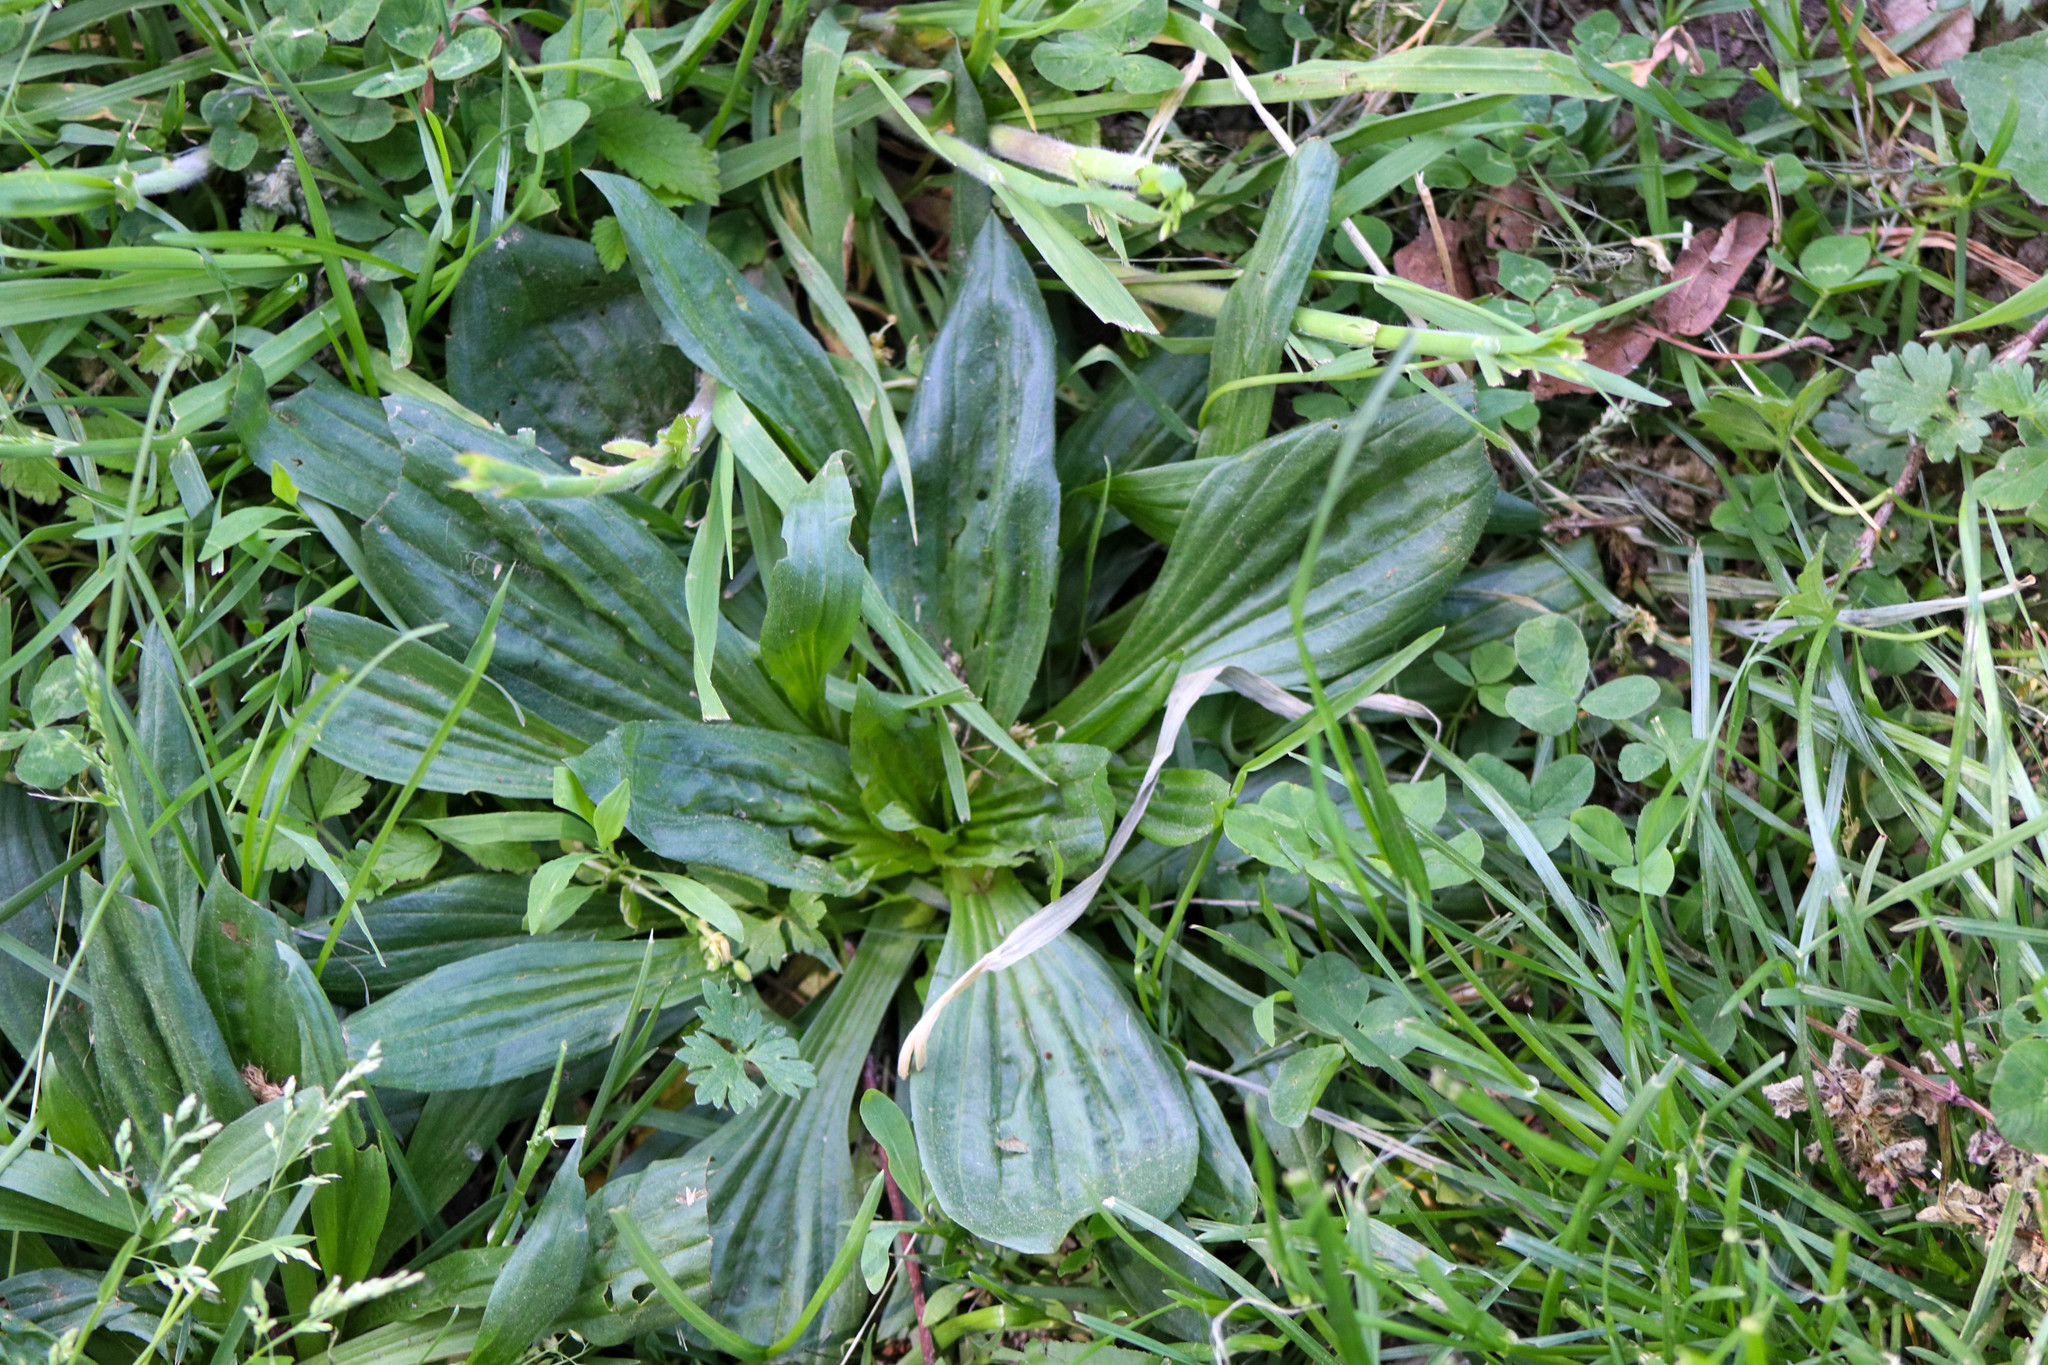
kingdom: Plantae
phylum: Tracheophyta
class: Magnoliopsida
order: Lamiales
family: Plantaginaceae
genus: Plantago
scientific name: Plantago lanceolata
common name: Ribwort plantain
